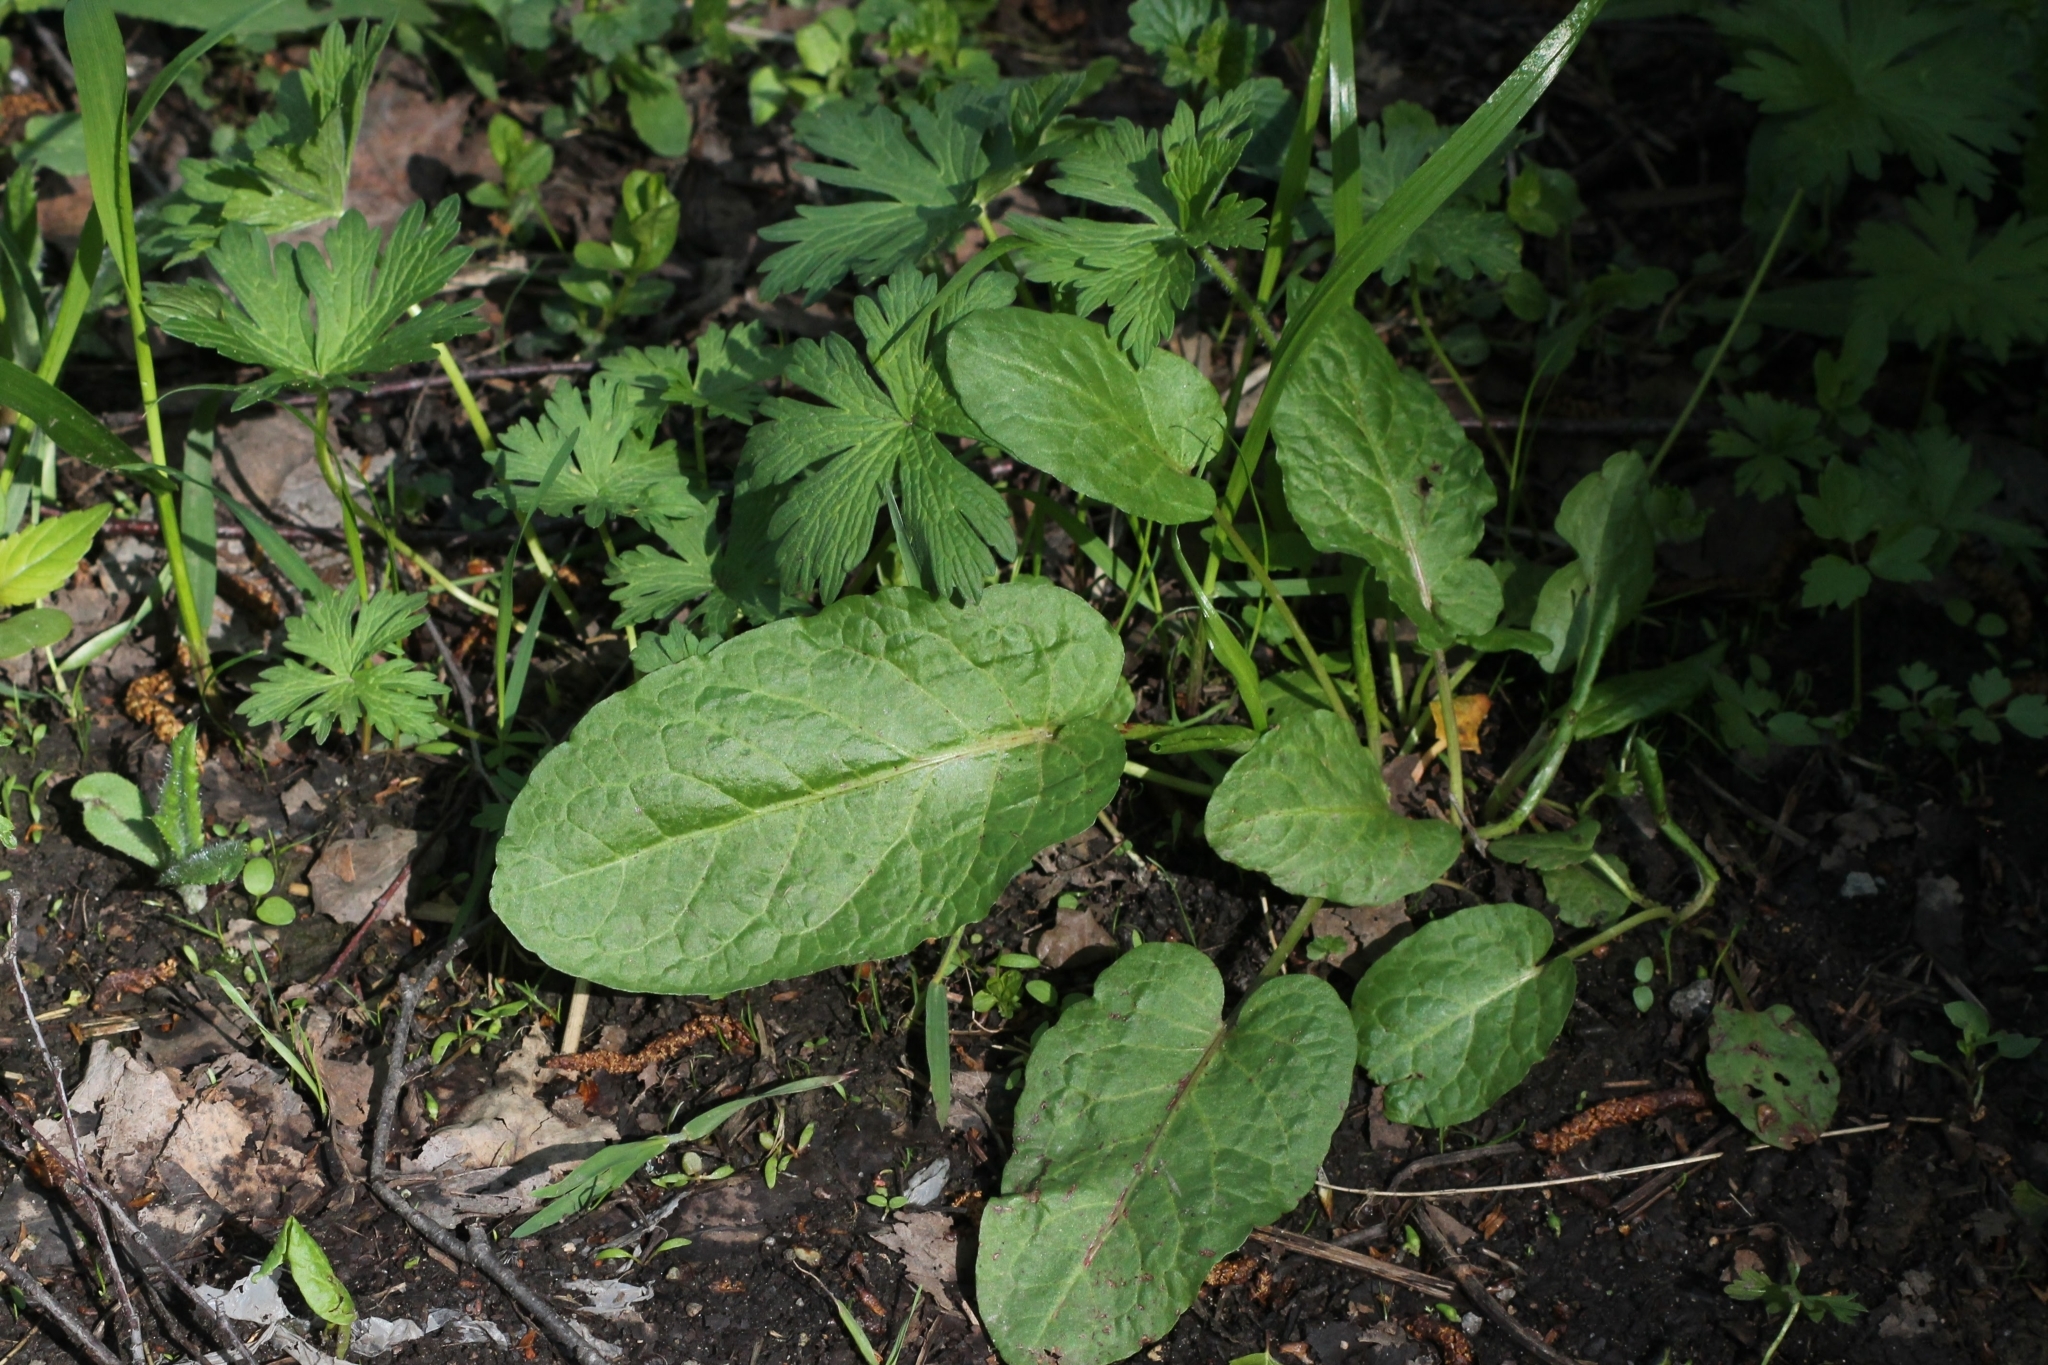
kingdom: Plantae
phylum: Tracheophyta
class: Magnoliopsida
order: Caryophyllales
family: Polygonaceae
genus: Rumex
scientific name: Rumex obtusifolius
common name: Bitter dock
